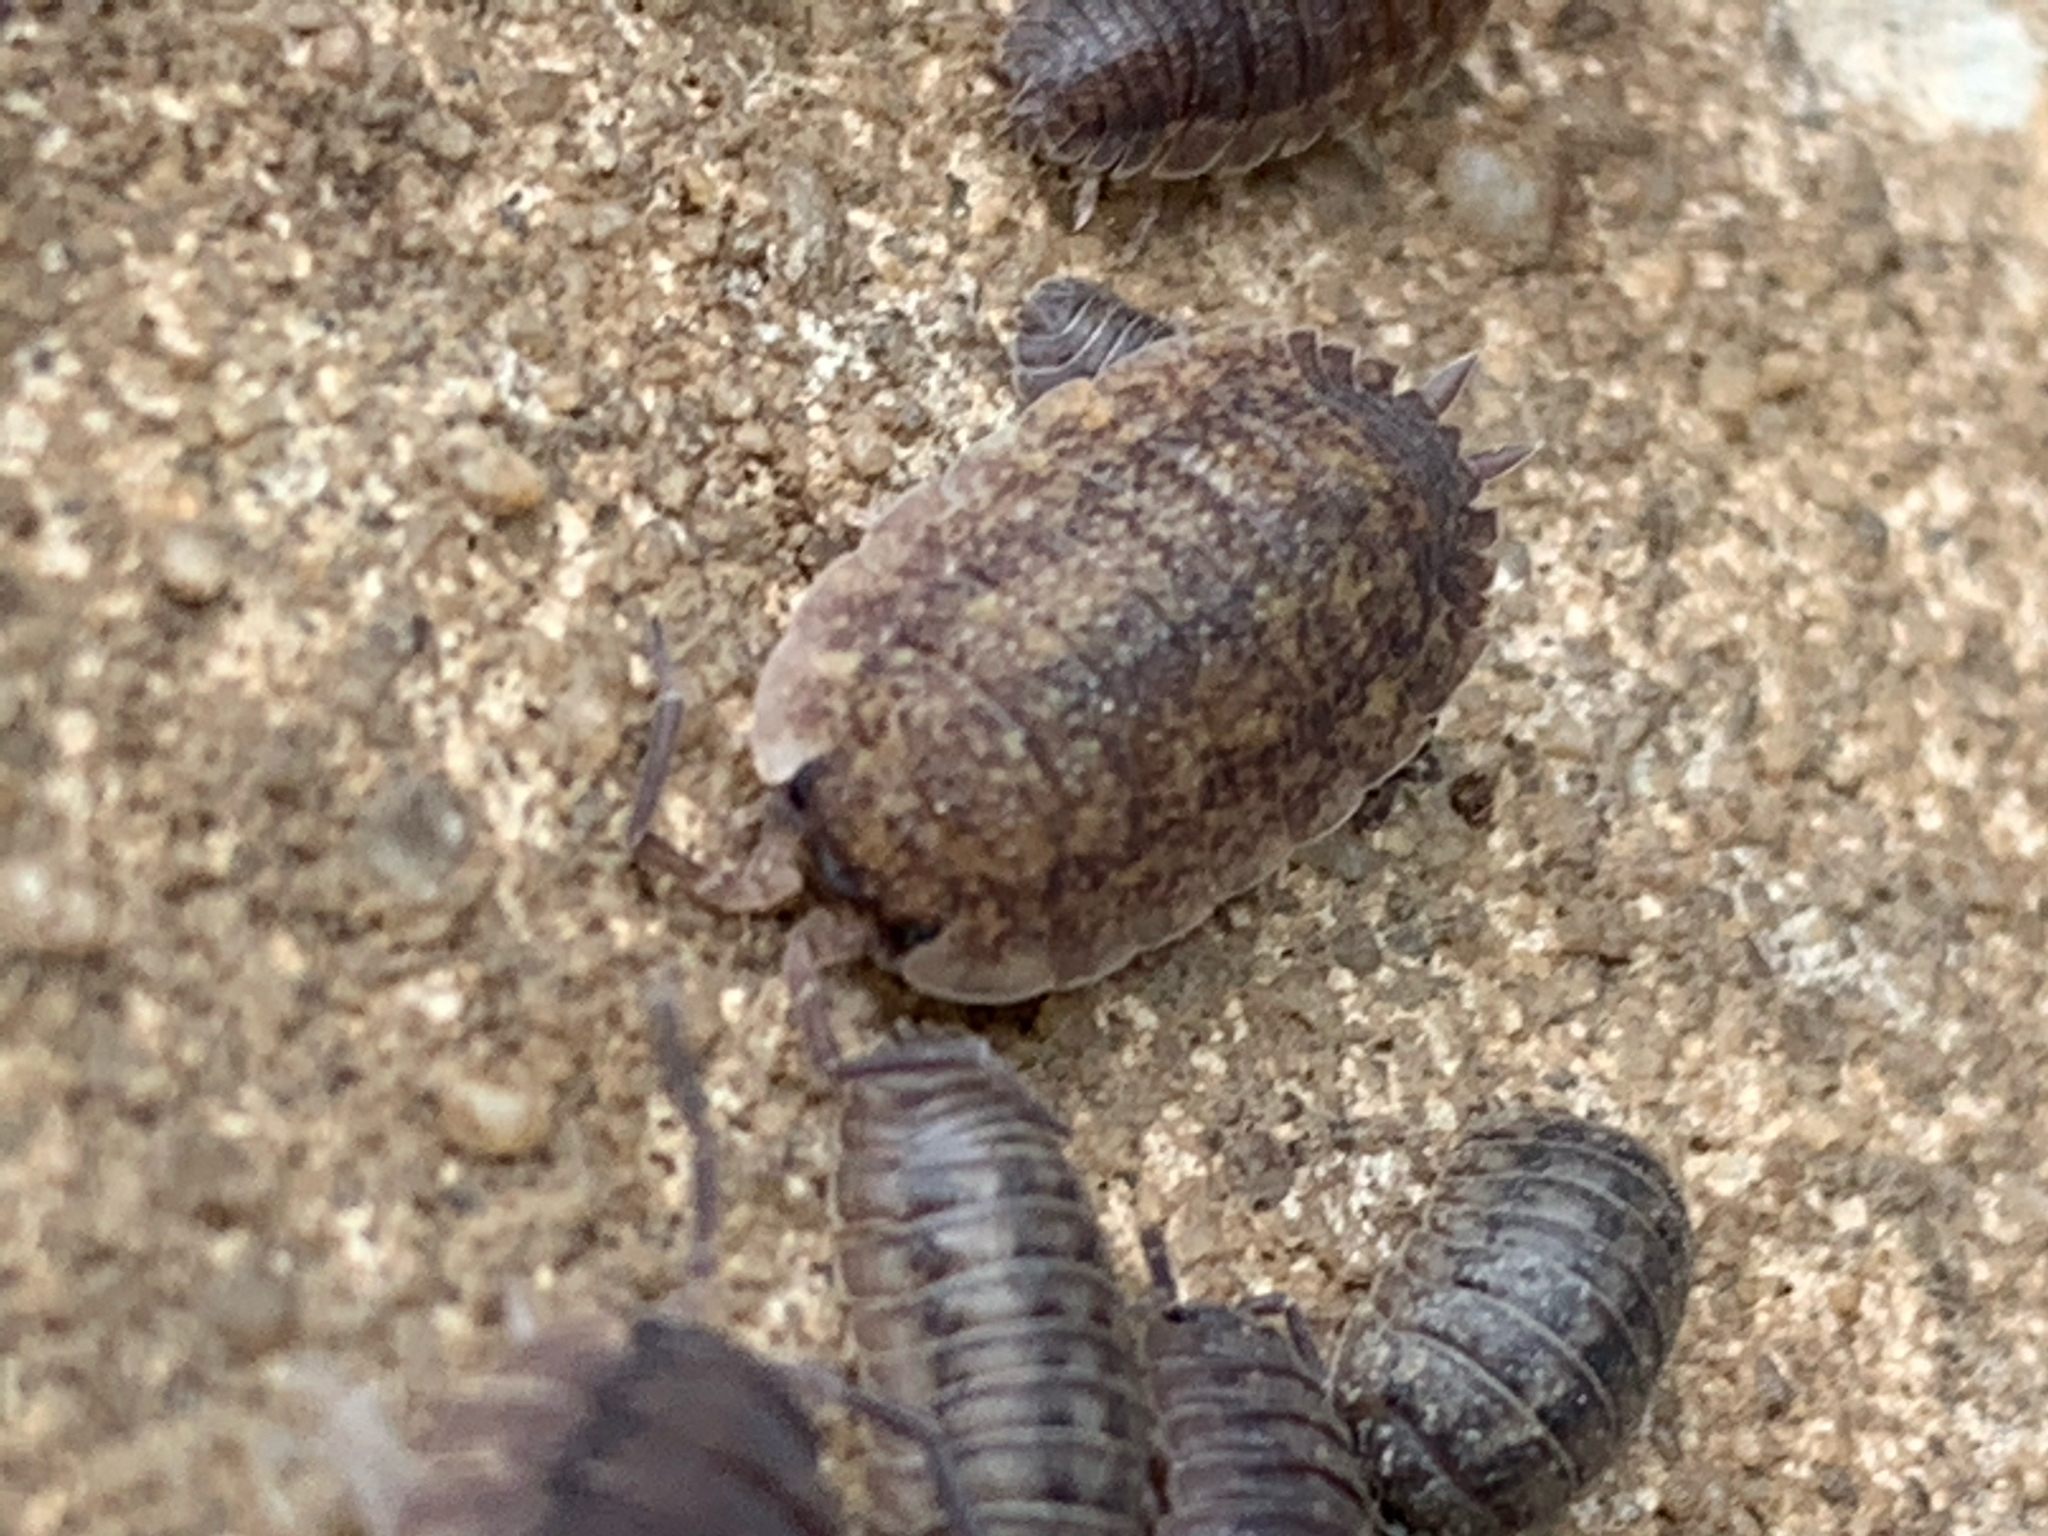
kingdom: Animalia
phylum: Arthropoda
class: Malacostraca
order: Isopoda
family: Porcellionidae
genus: Porcellio
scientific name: Porcellio scaber
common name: Common rough woodlouse
